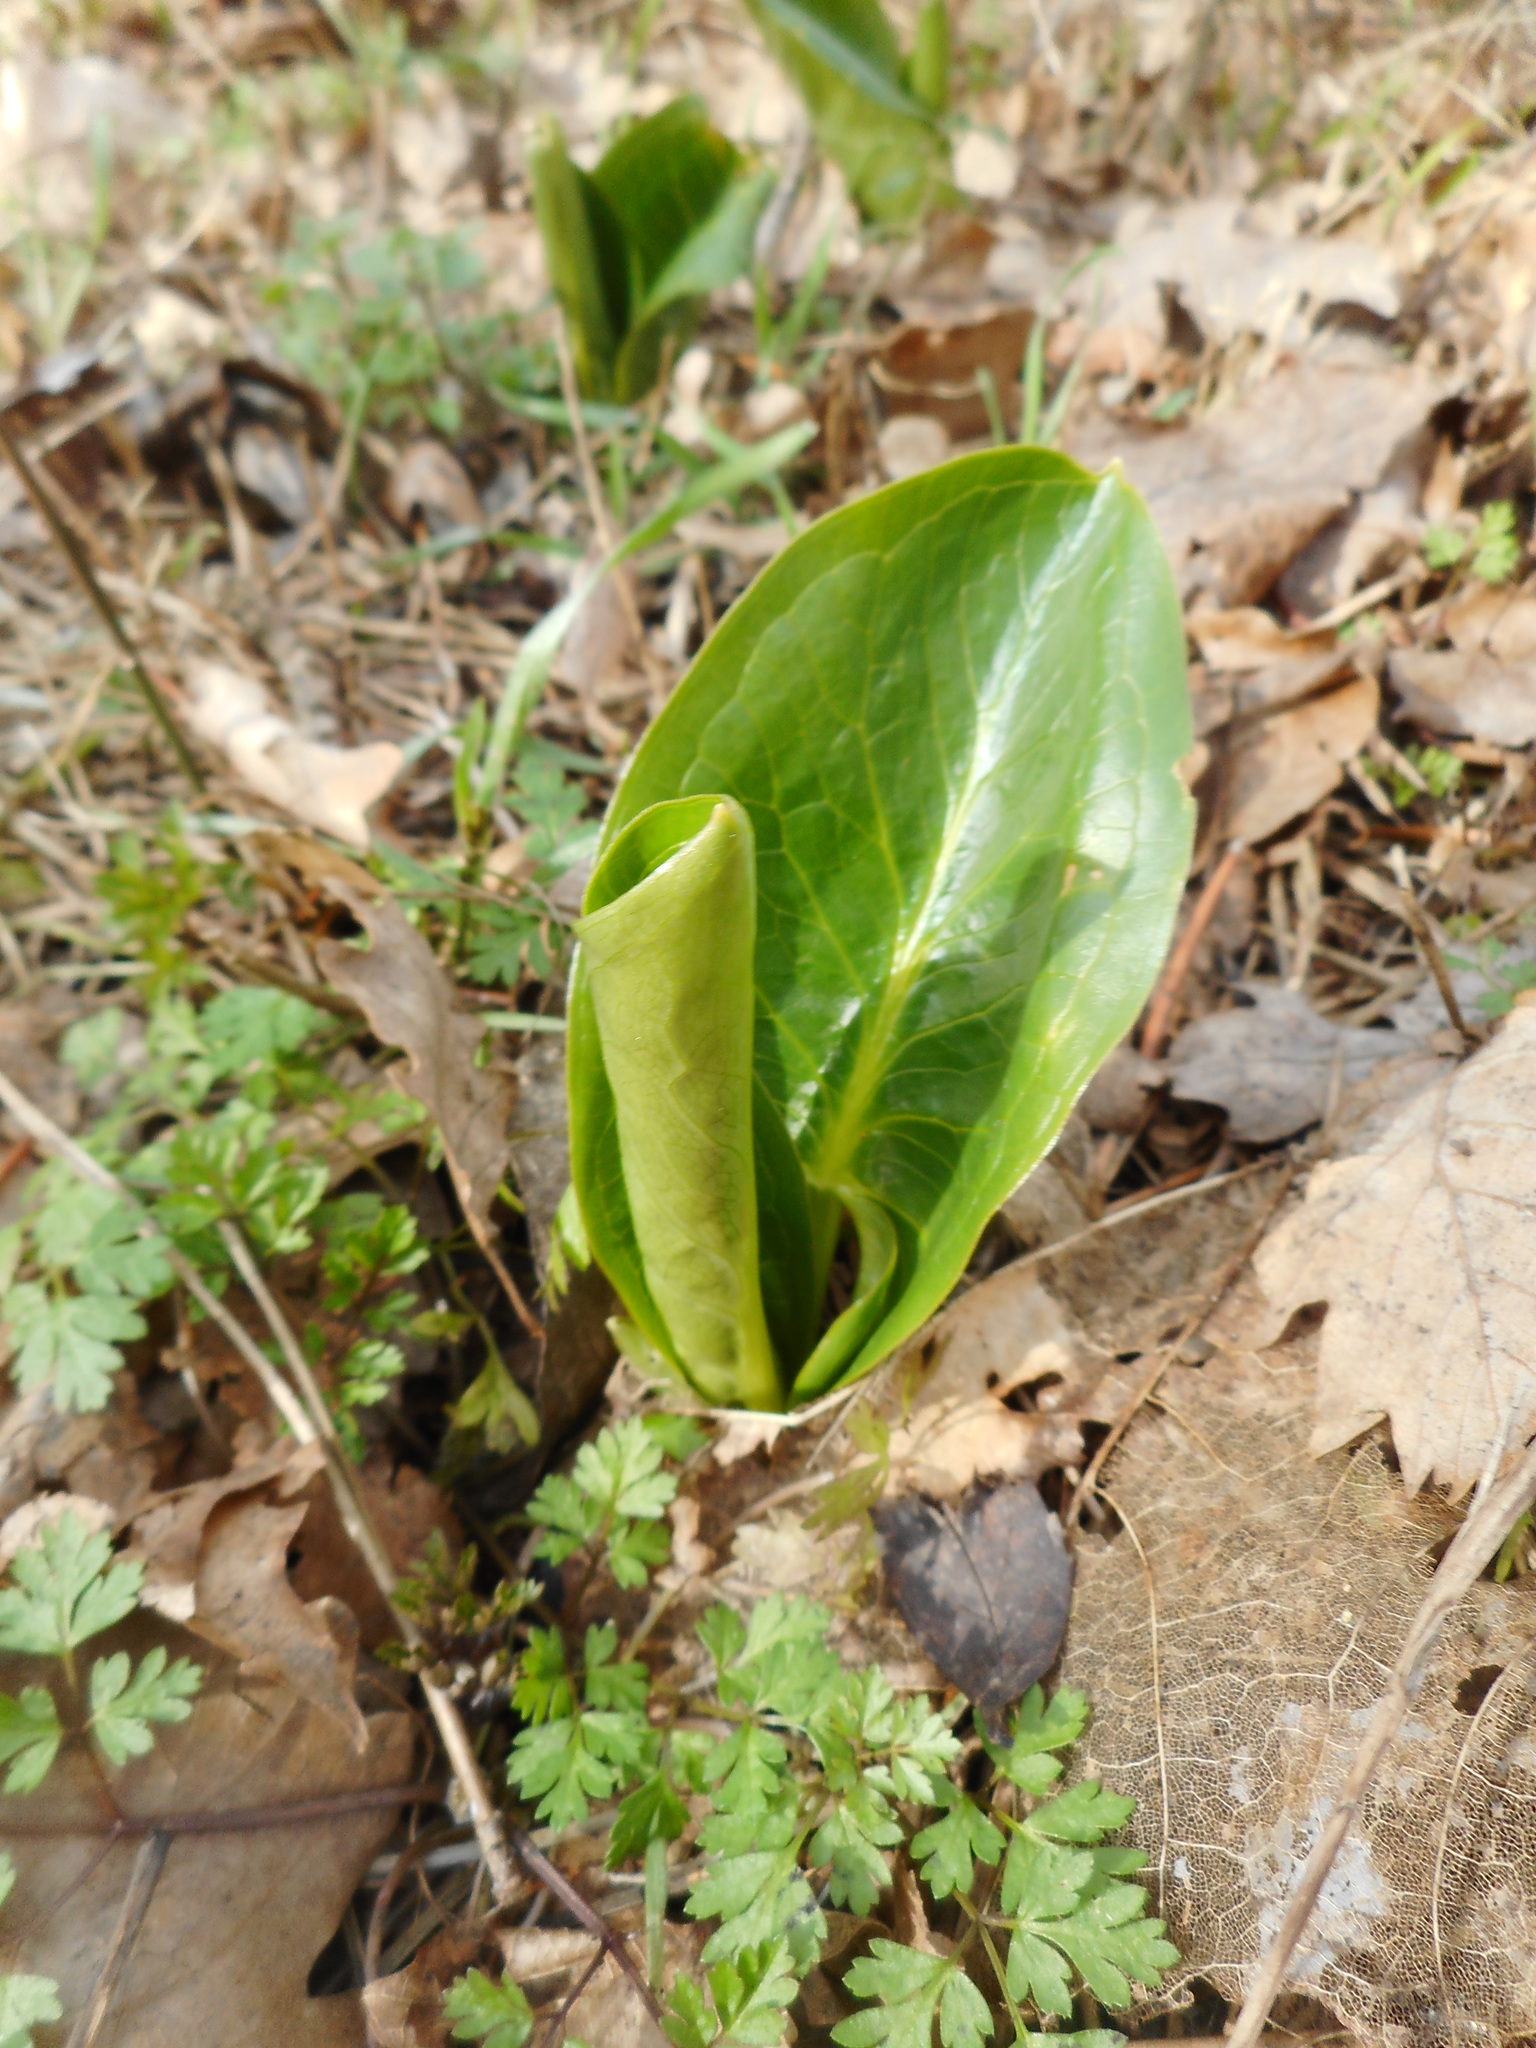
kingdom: Plantae
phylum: Tracheophyta
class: Liliopsida
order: Alismatales
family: Araceae
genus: Arum
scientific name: Arum cylindraceum
